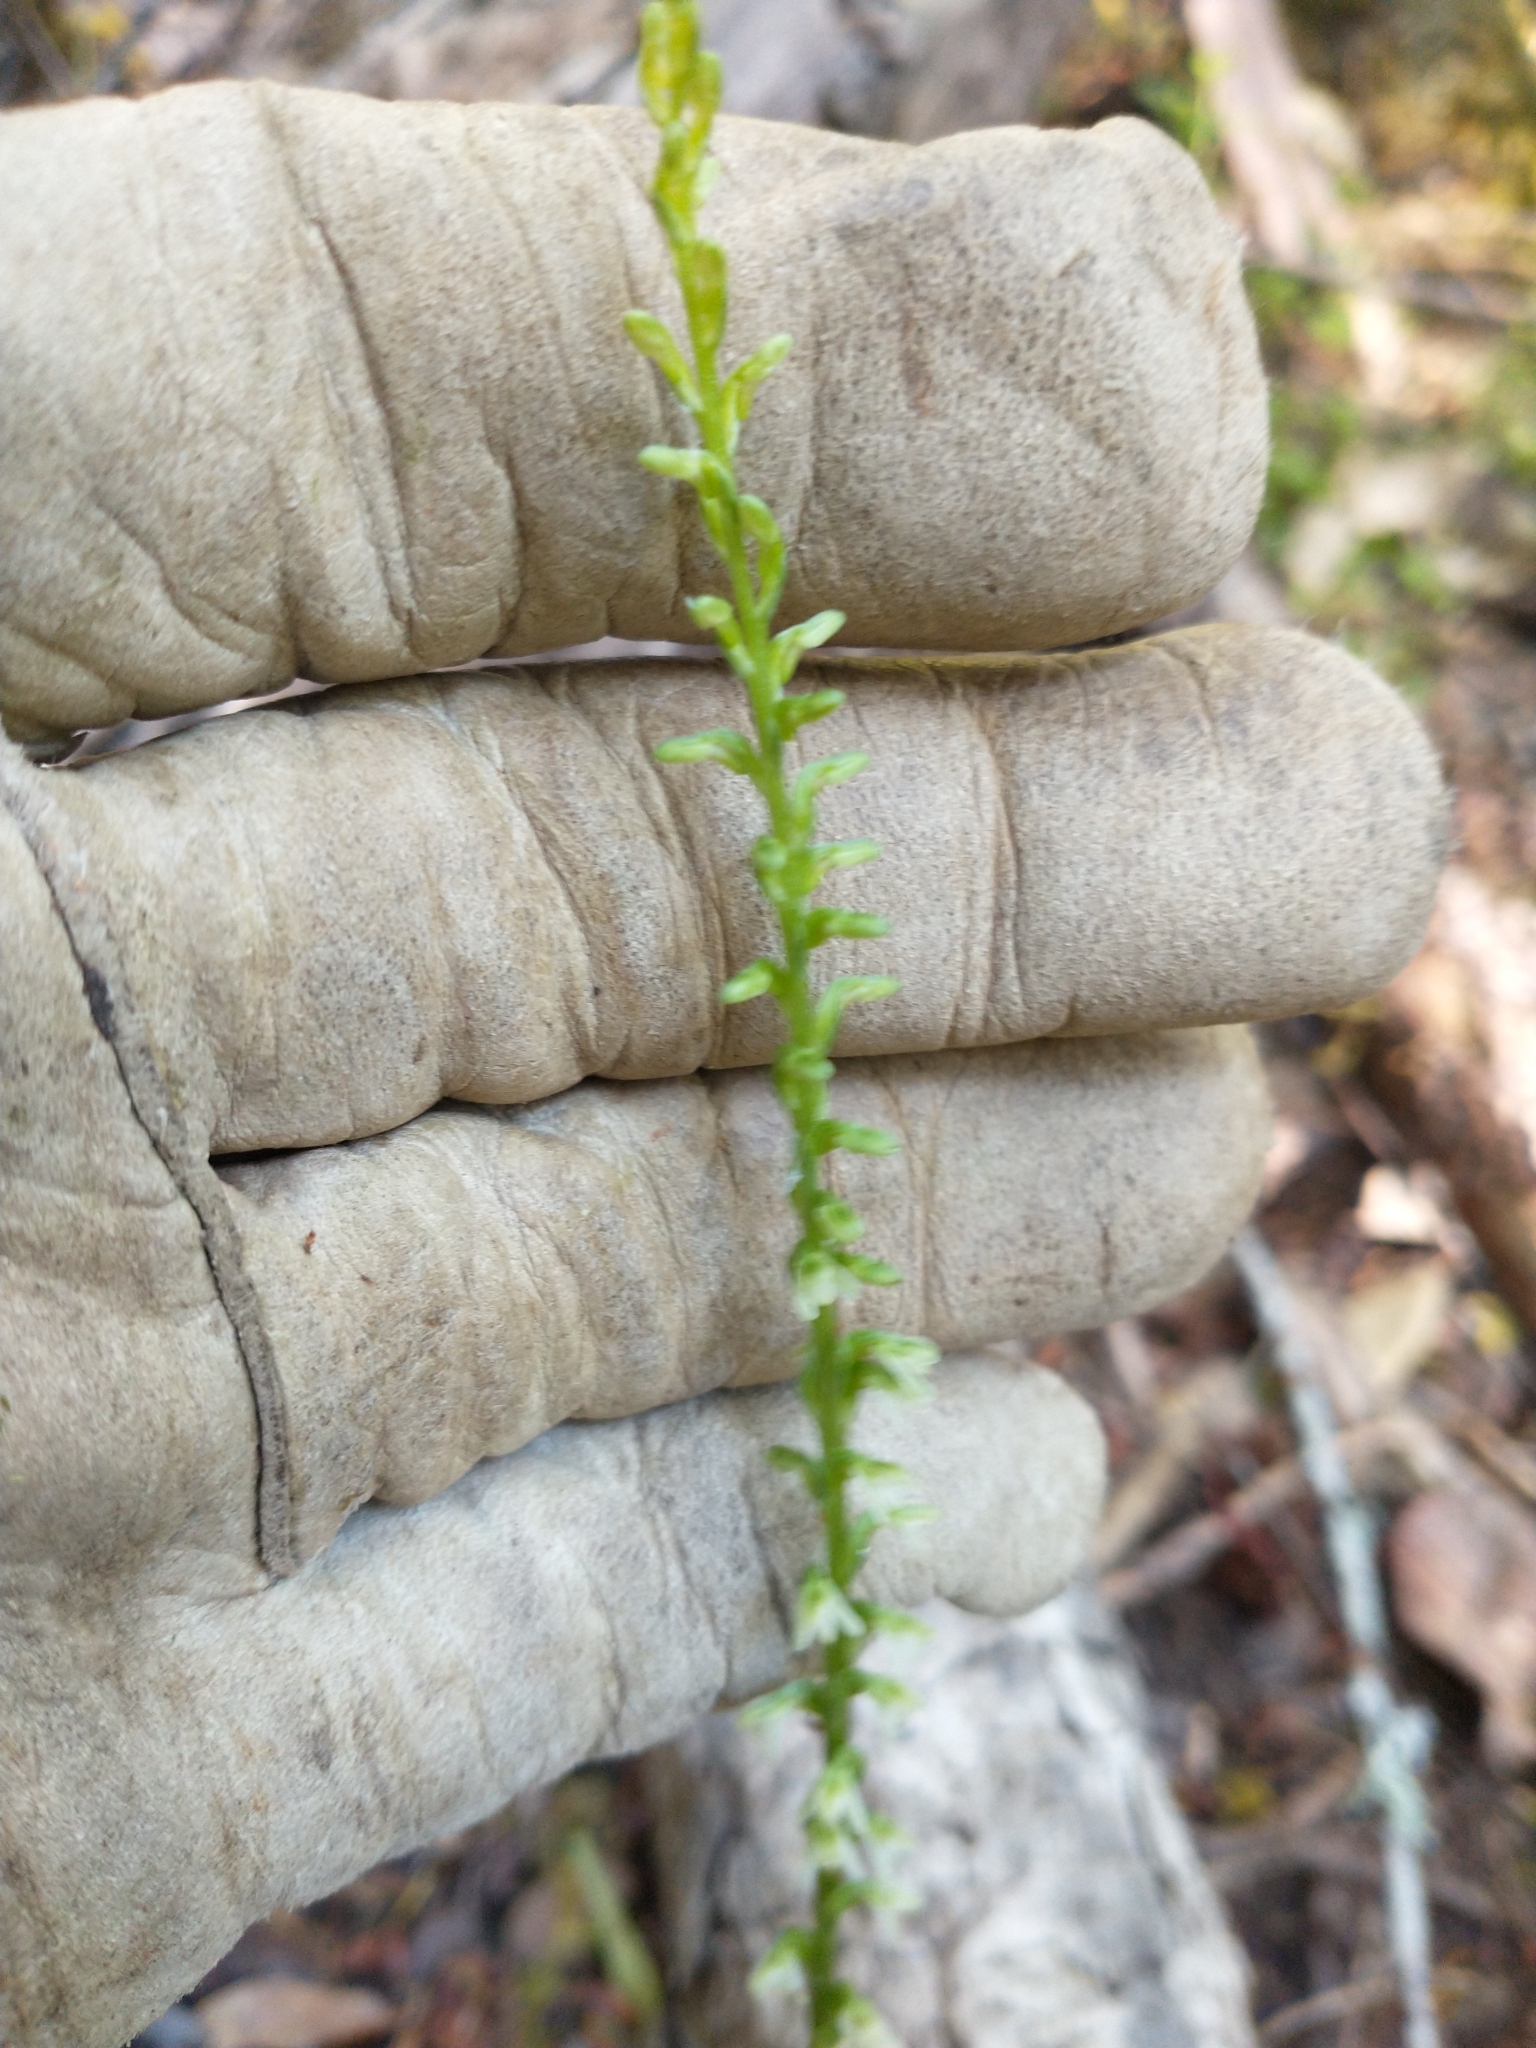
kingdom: Plantae
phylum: Tracheophyta
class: Liliopsida
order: Asparagales
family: Orchidaceae
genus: Platanthera
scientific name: Platanthera ephemerantha
